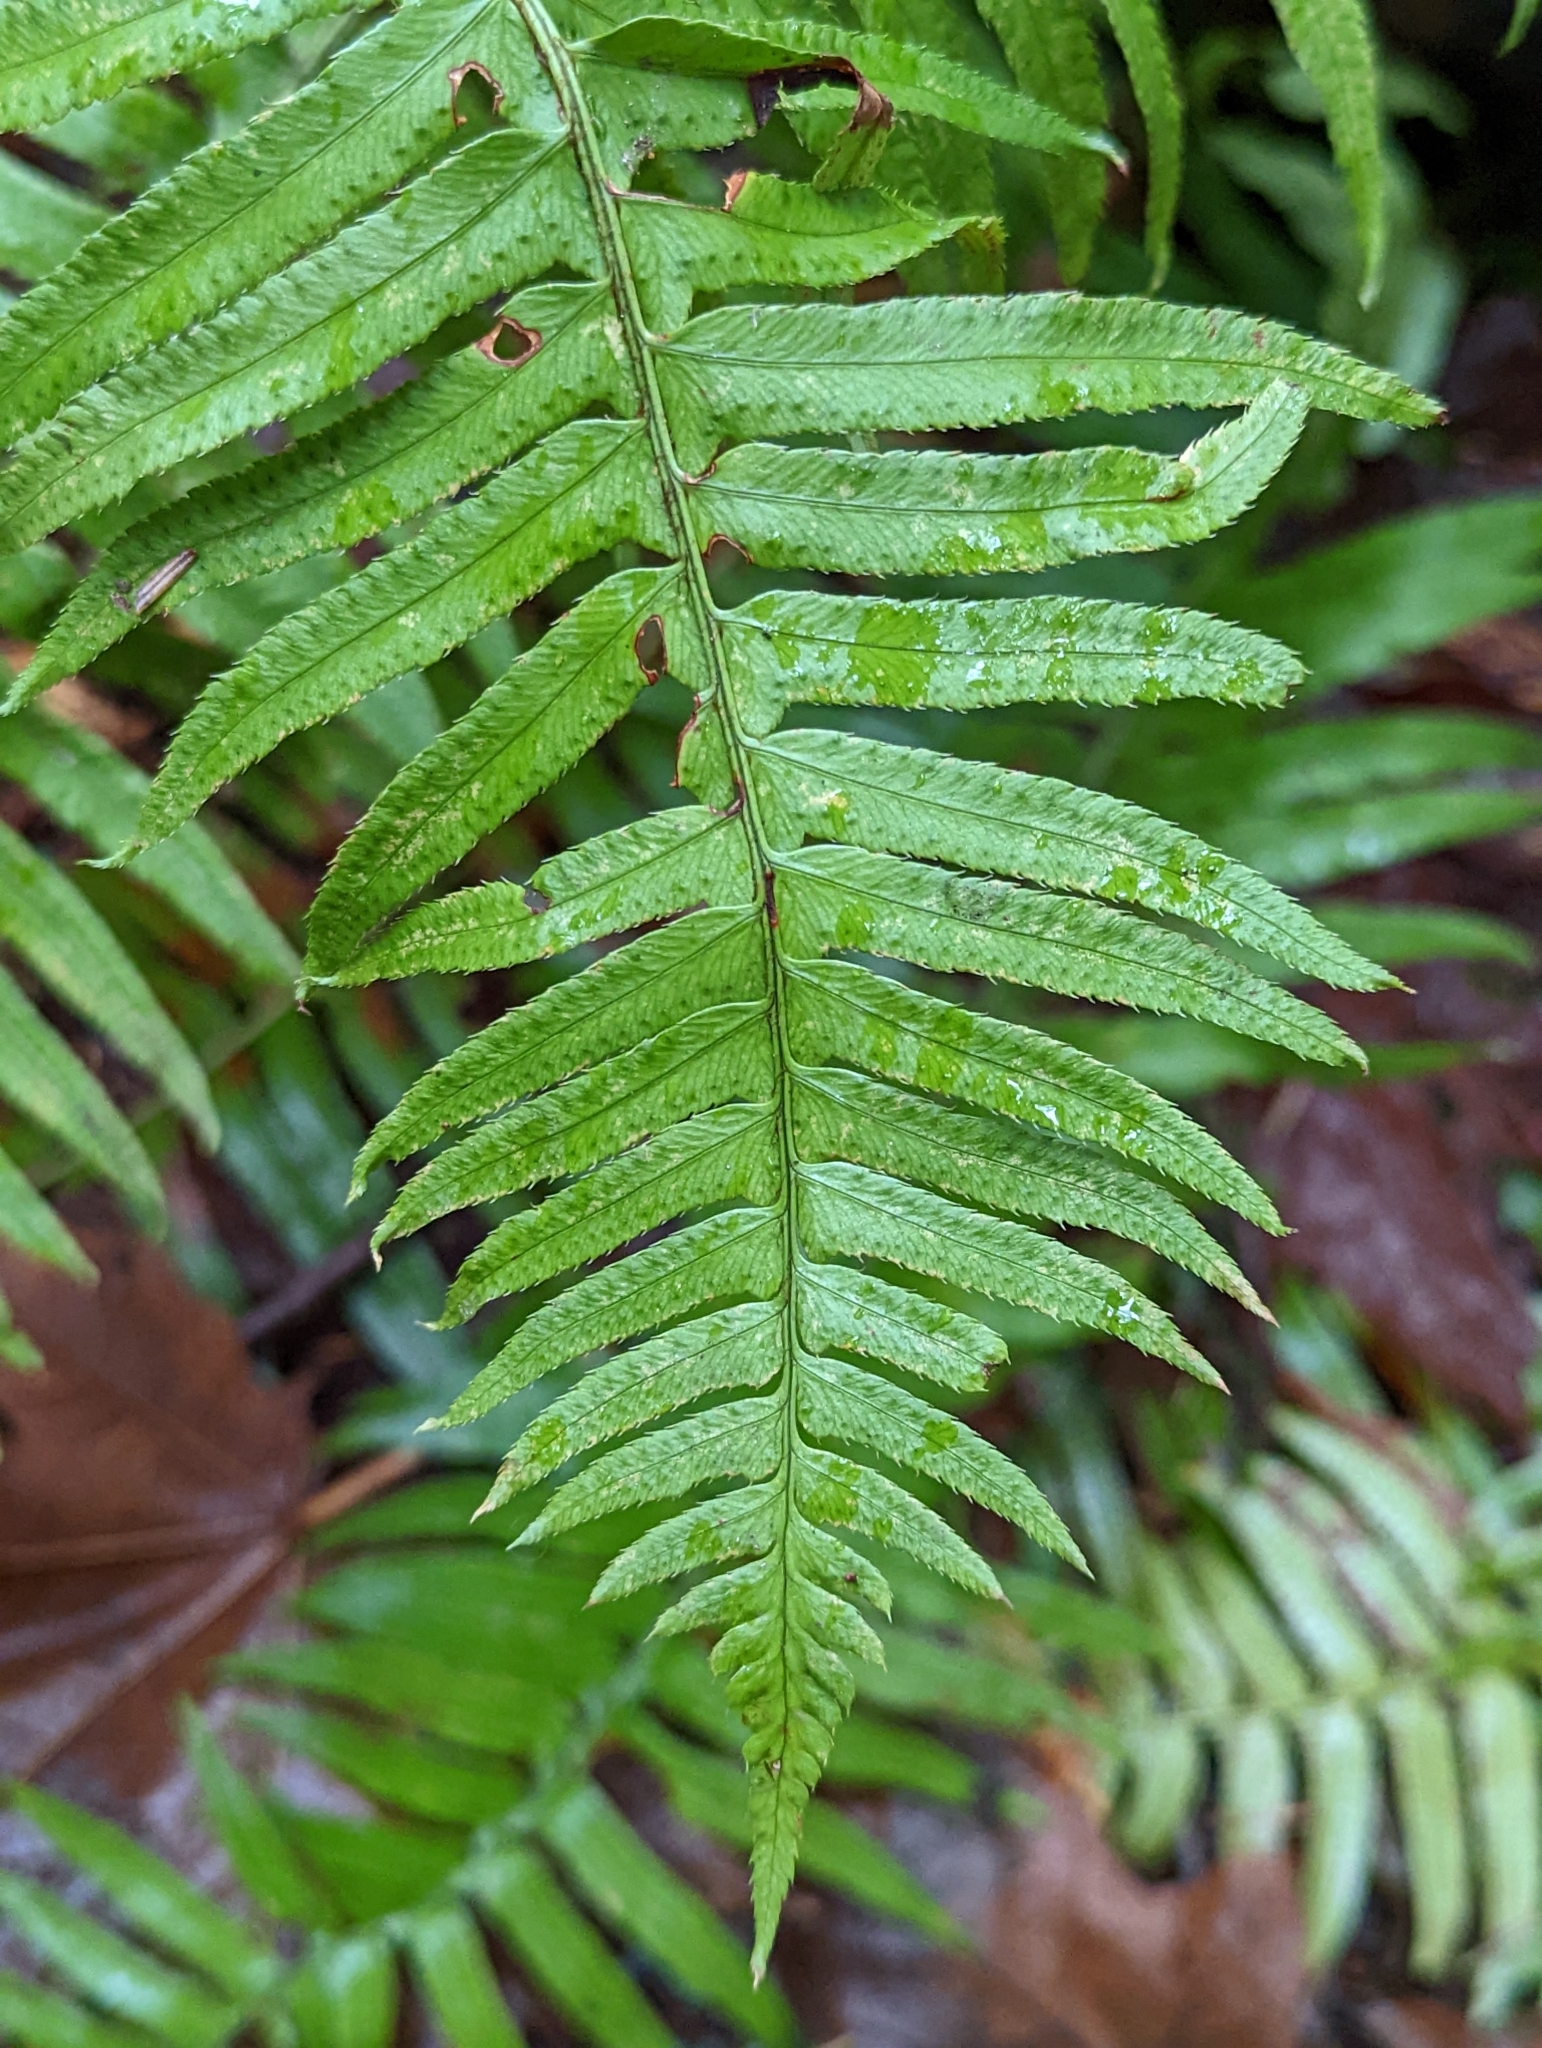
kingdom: Plantae
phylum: Tracheophyta
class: Polypodiopsida
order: Polypodiales
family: Dryopteridaceae
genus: Polystichum
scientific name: Polystichum munitum
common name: Western sword-fern
